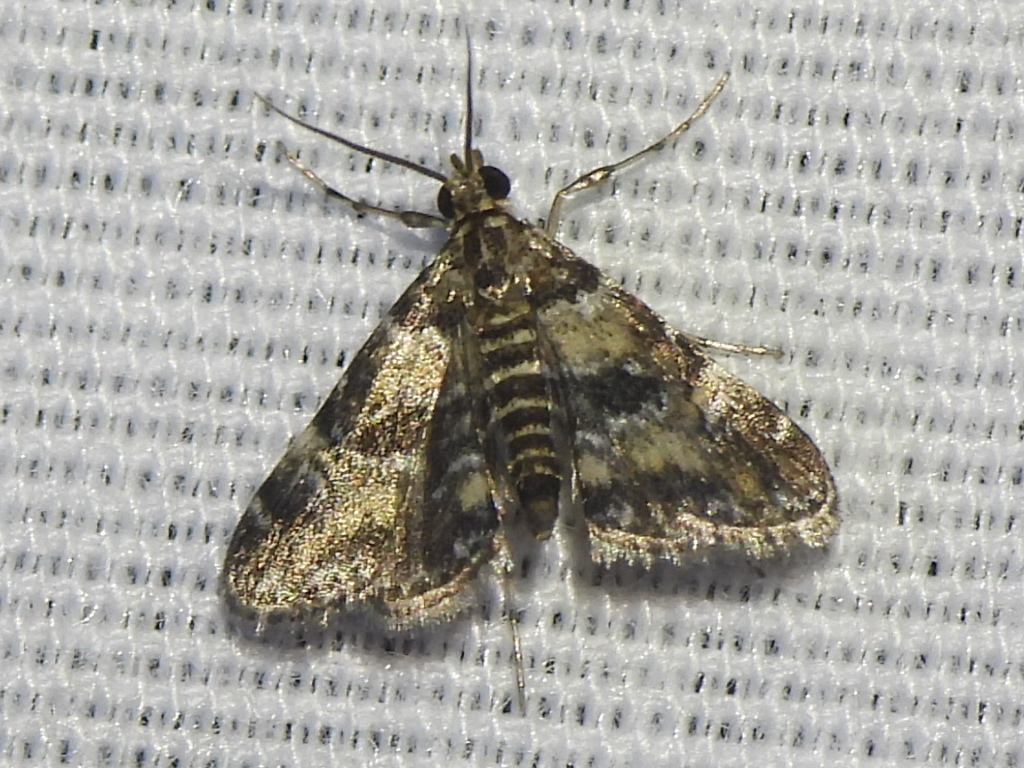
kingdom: Animalia
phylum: Arthropoda
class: Insecta
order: Lepidoptera
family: Crambidae
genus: Elophila
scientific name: Elophila obliteralis
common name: Waterlily leafcutter moth
